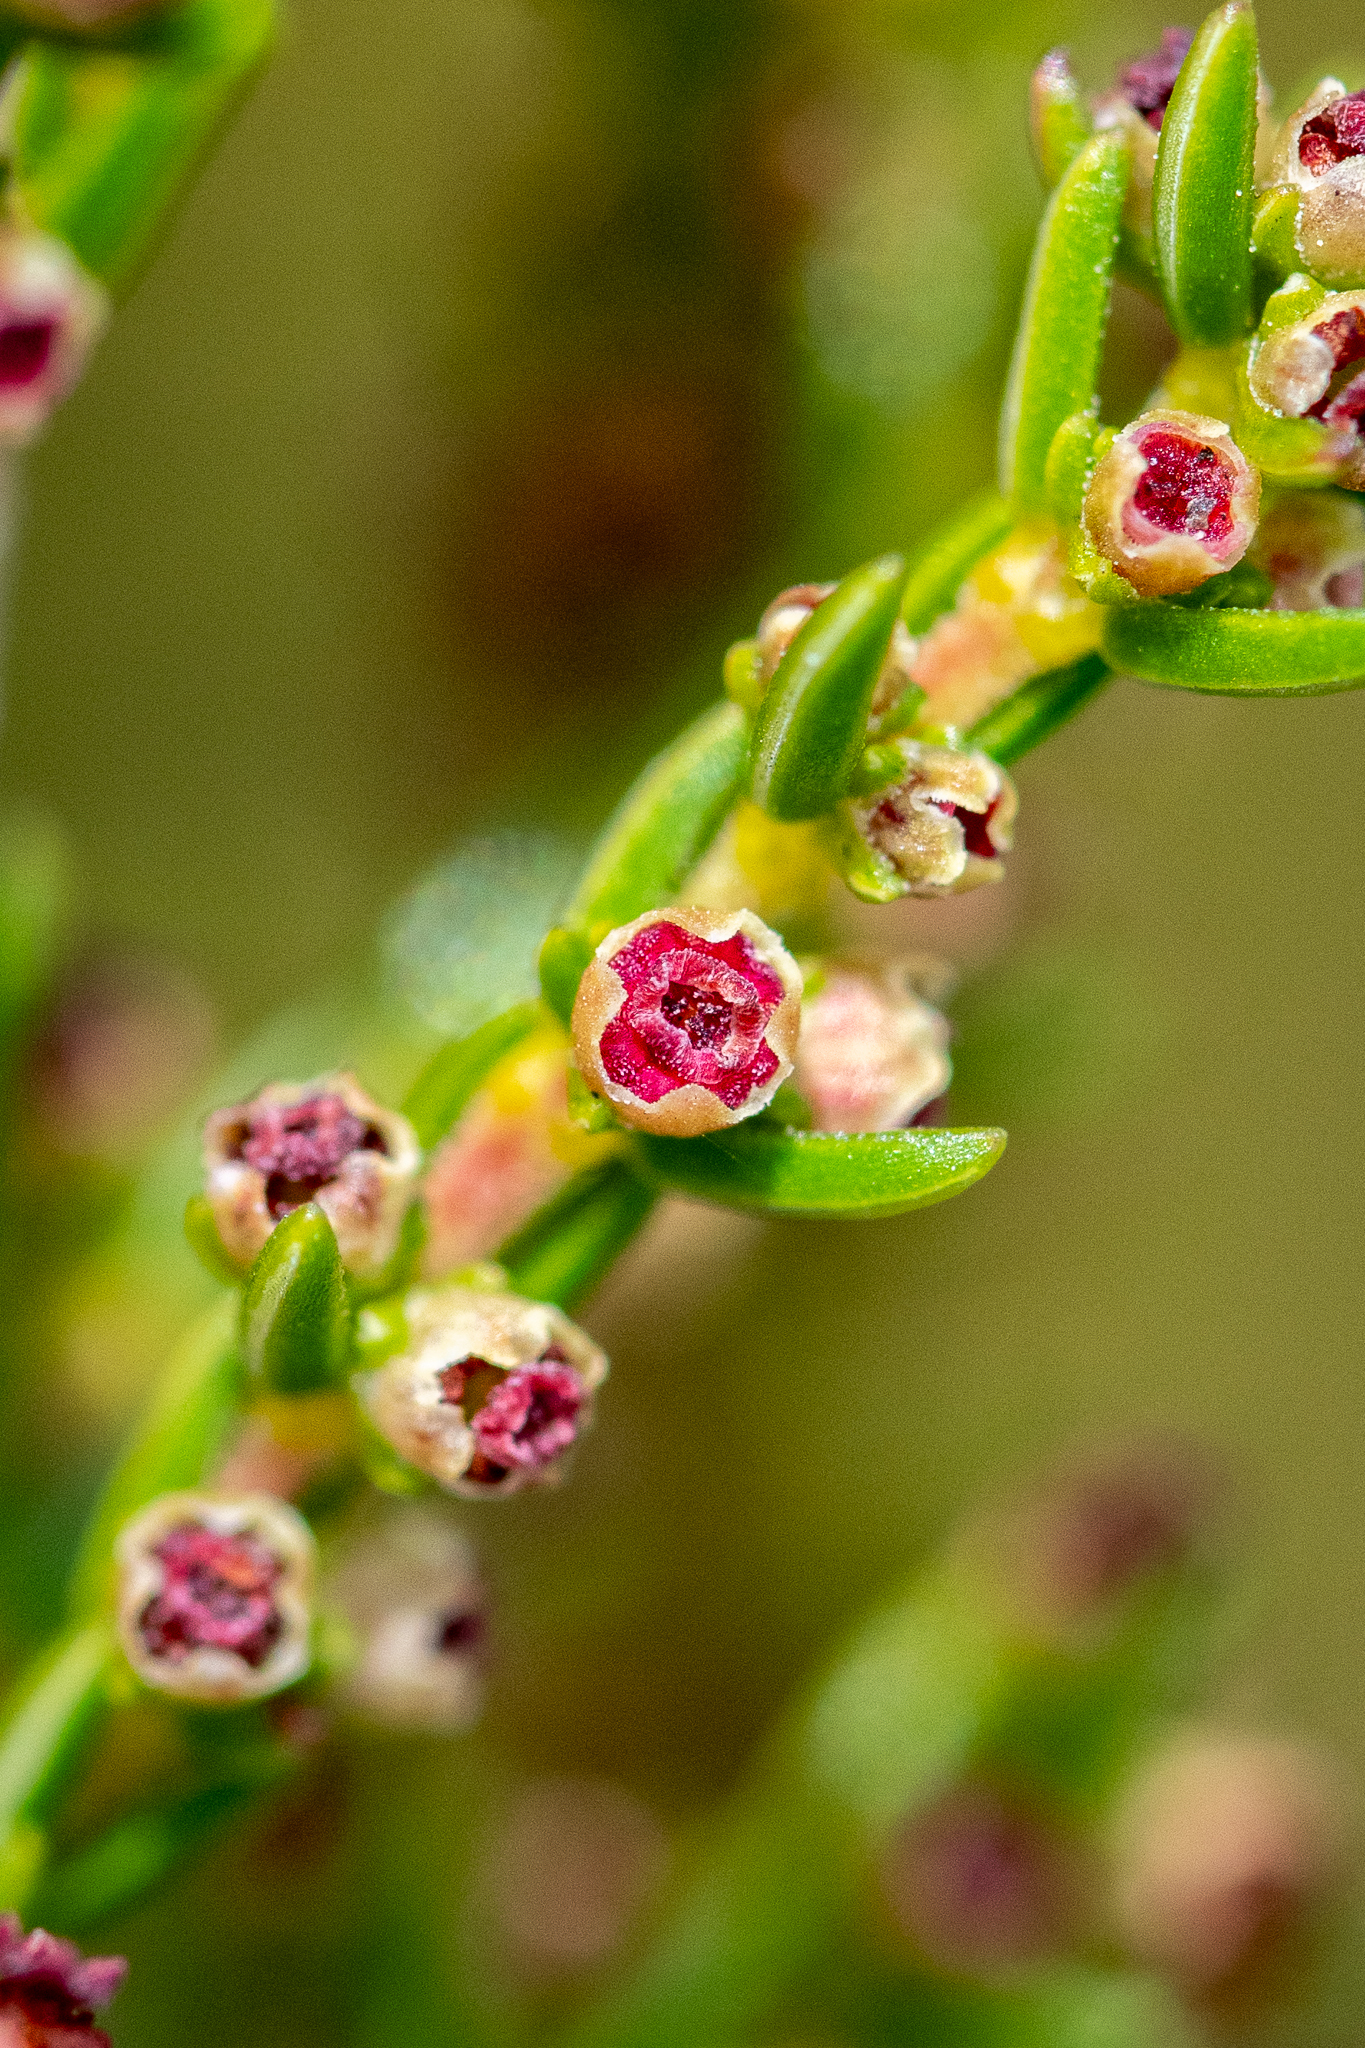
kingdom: Plantae
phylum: Tracheophyta
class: Magnoliopsida
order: Ericales
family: Ericaceae
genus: Erica
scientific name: Erica axillaris
